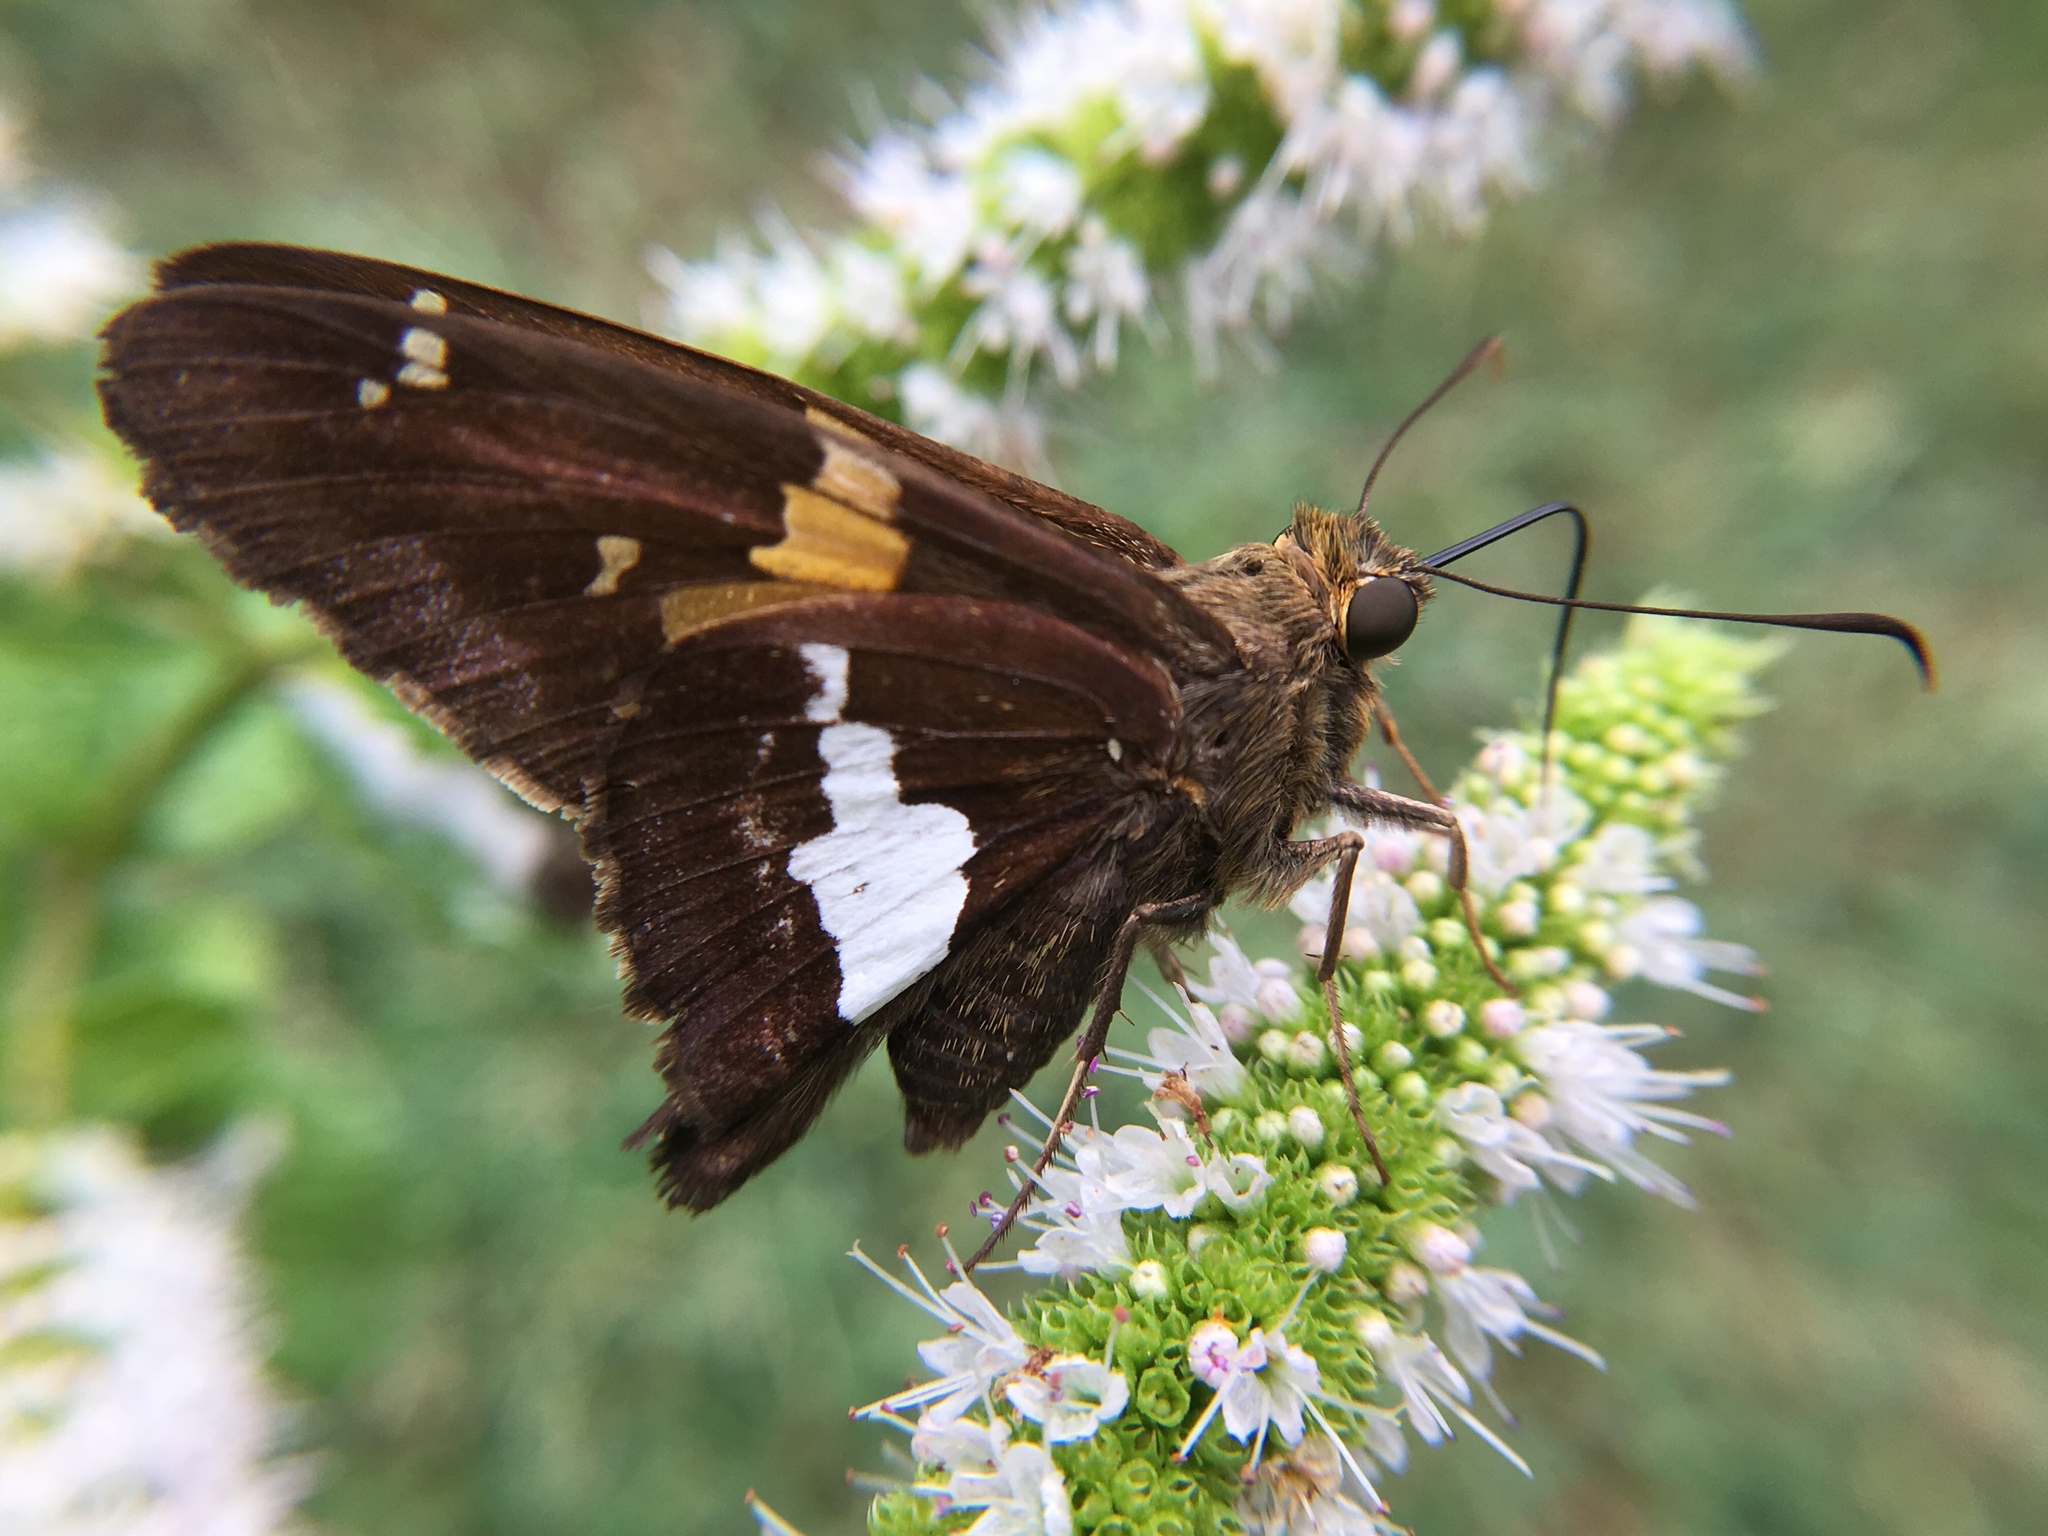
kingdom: Animalia
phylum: Arthropoda
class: Insecta
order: Lepidoptera
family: Hesperiidae
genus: Epargyreus
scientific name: Epargyreus clarus
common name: Silver-spotted skipper
